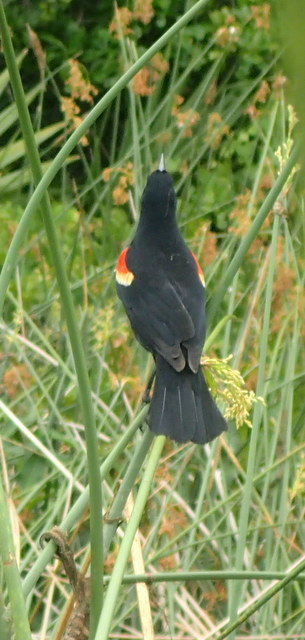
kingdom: Animalia
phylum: Chordata
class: Aves
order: Passeriformes
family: Icteridae
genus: Agelaius
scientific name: Agelaius phoeniceus
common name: Red-winged blackbird
